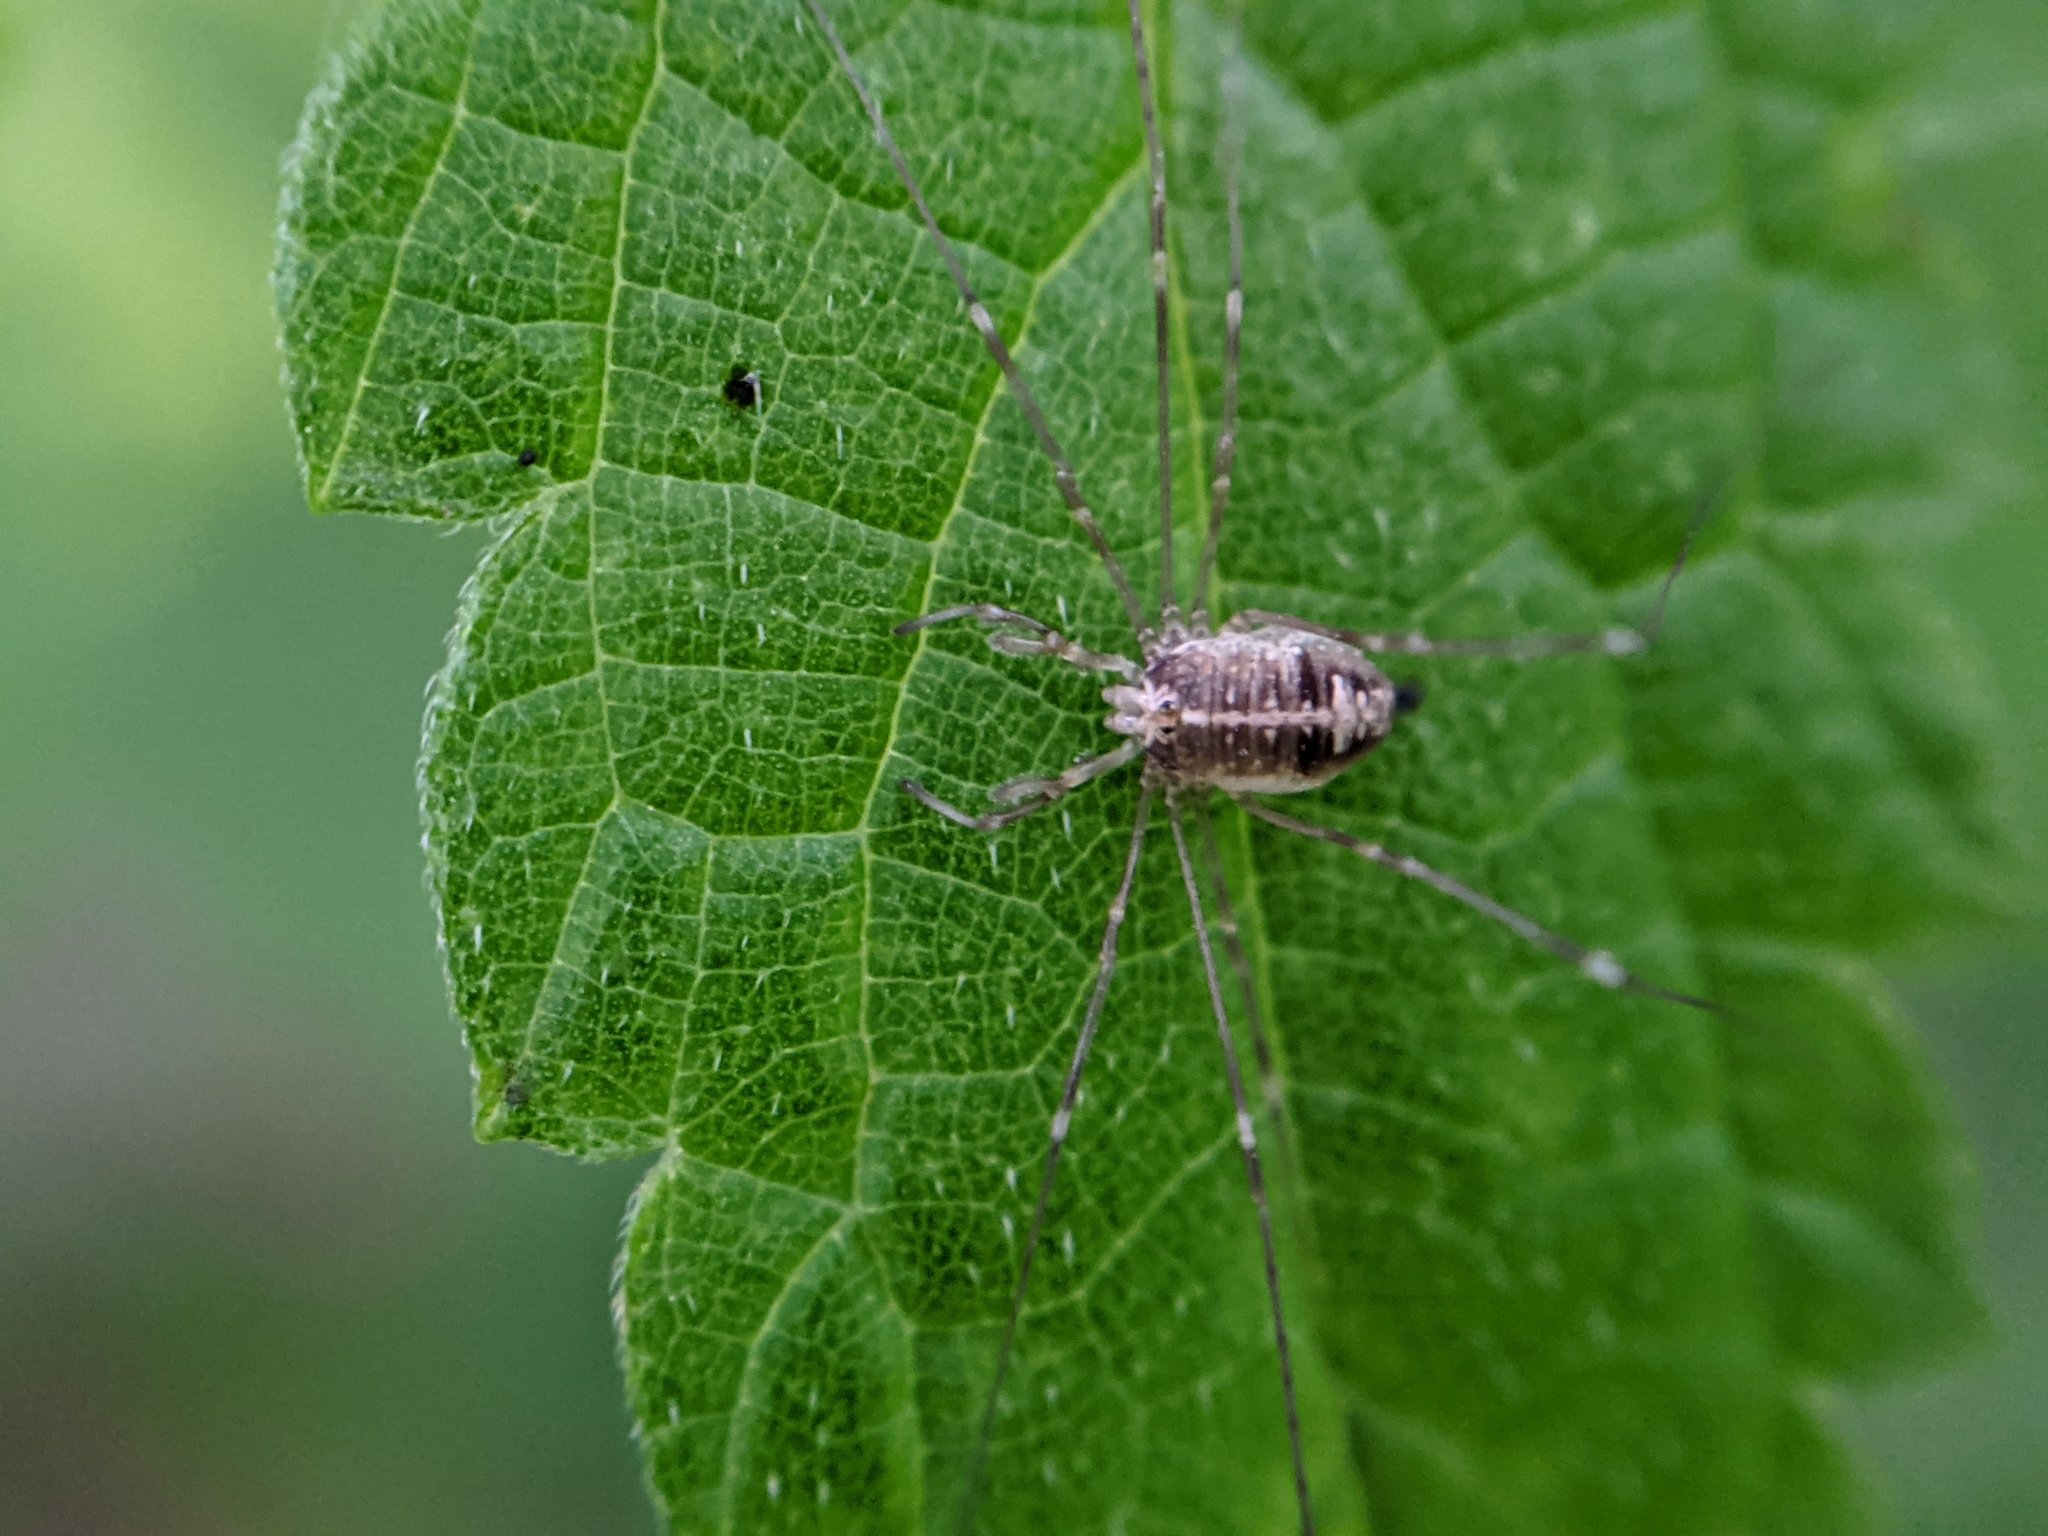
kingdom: Animalia
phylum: Arthropoda
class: Arachnida
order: Opiliones
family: Phalangiidae
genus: Dicranopalpus
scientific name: Dicranopalpus ramosus
